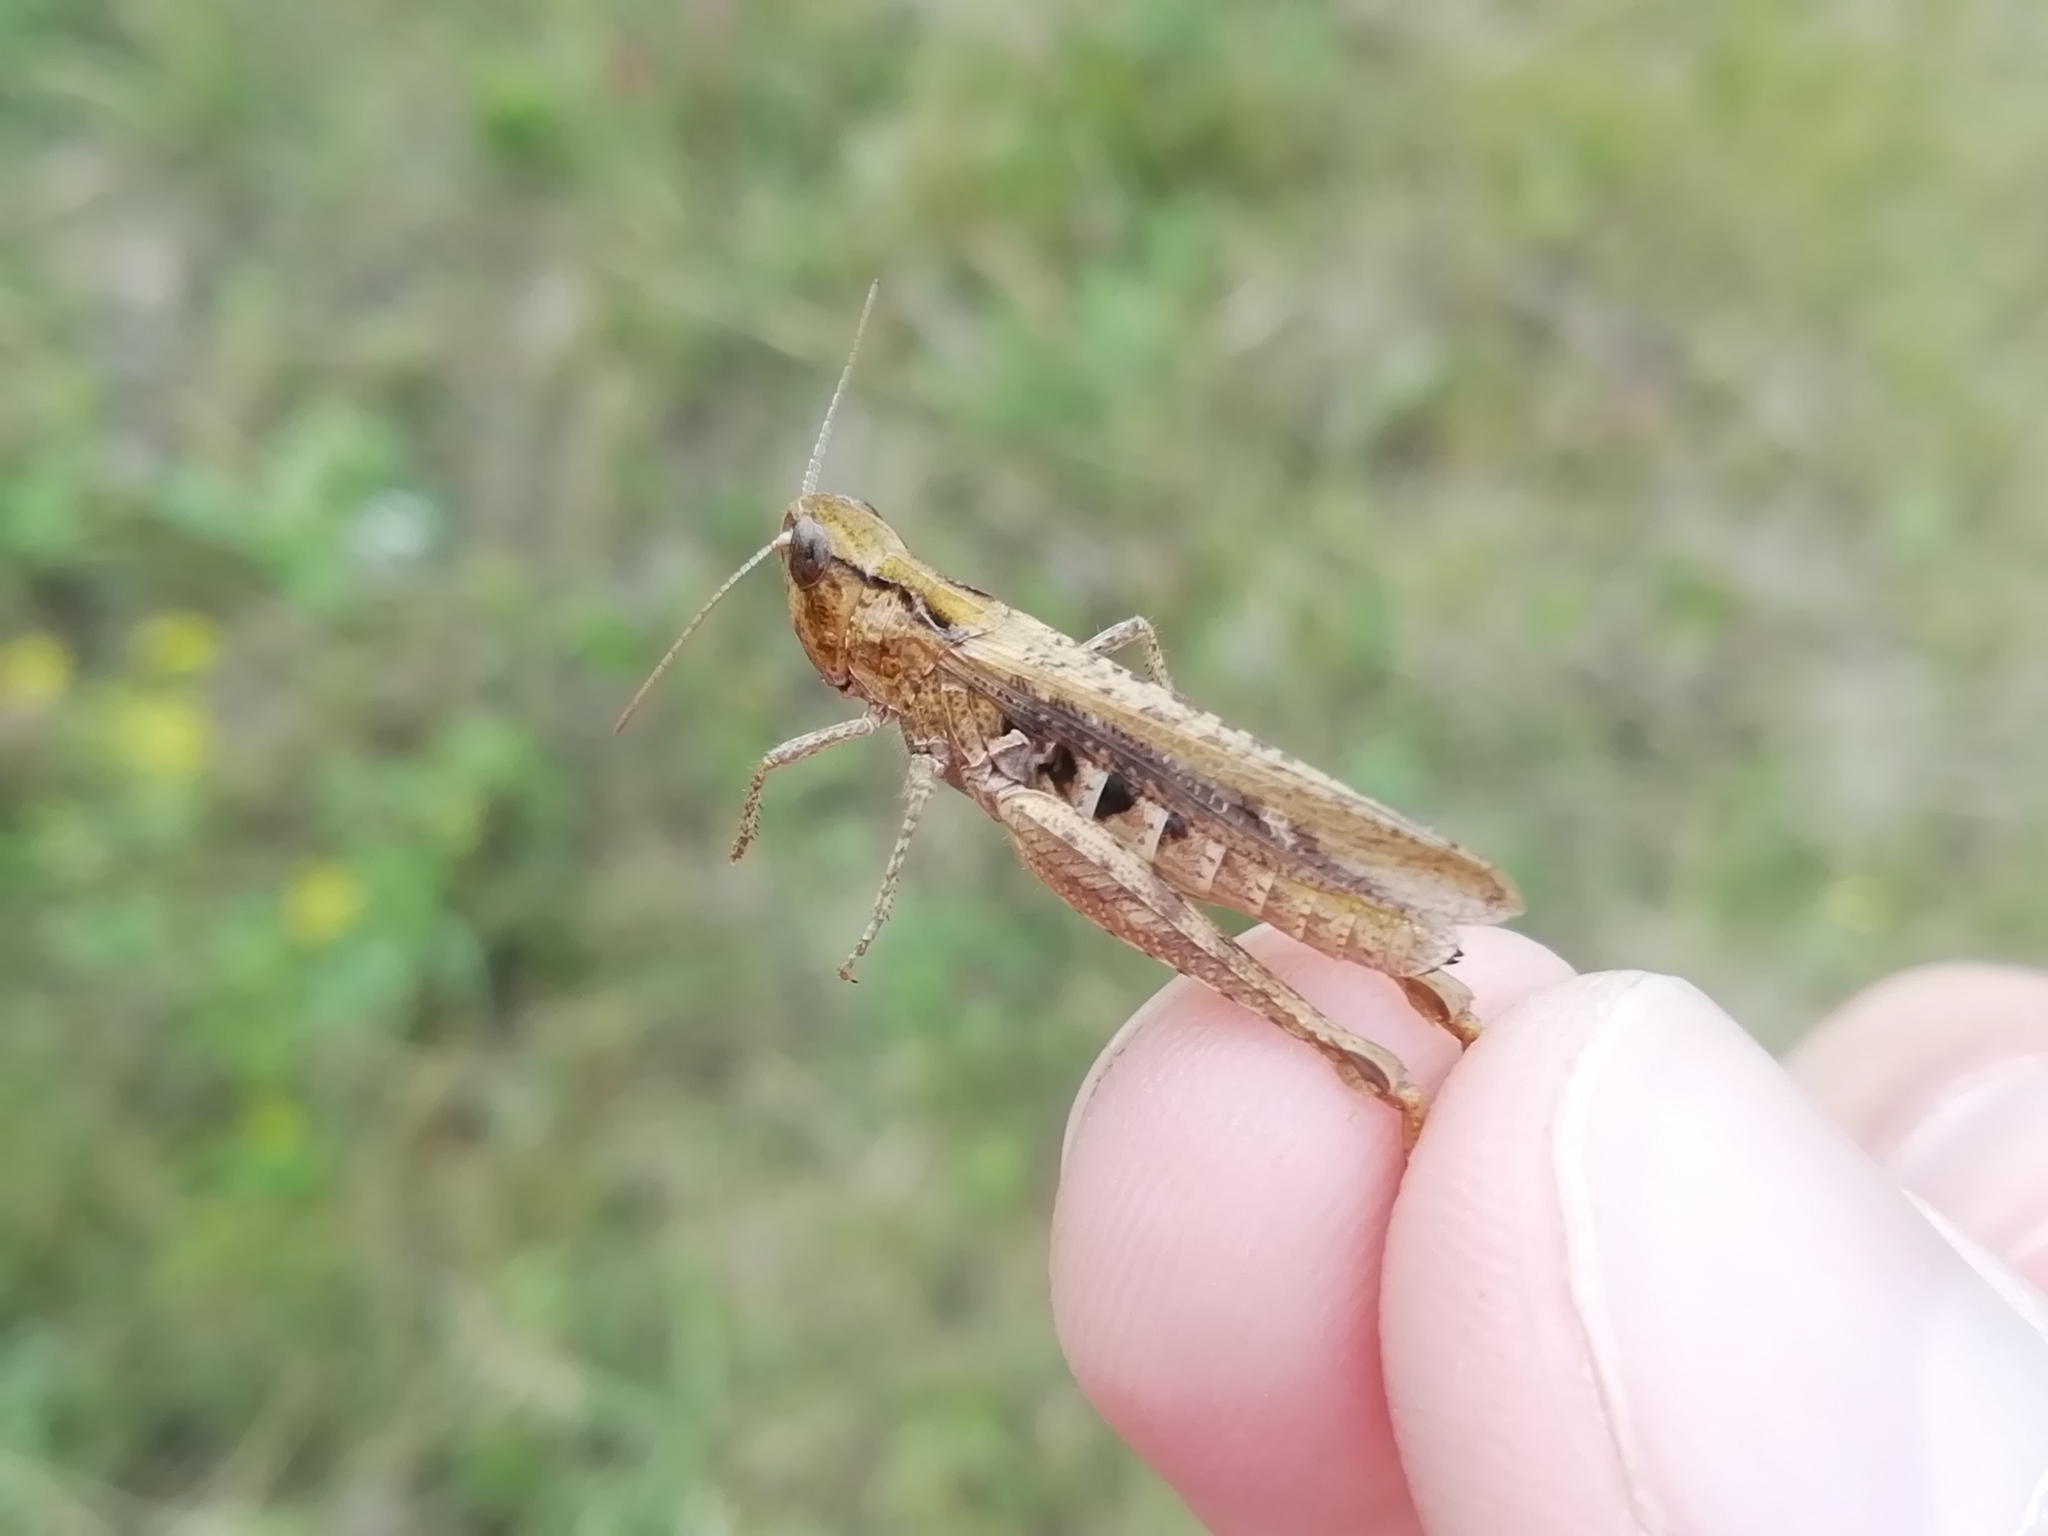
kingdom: Animalia
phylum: Arthropoda
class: Insecta
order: Orthoptera
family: Acrididae
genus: Chorthippus
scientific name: Chorthippus biguttulus
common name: Bow-winged grasshopper
